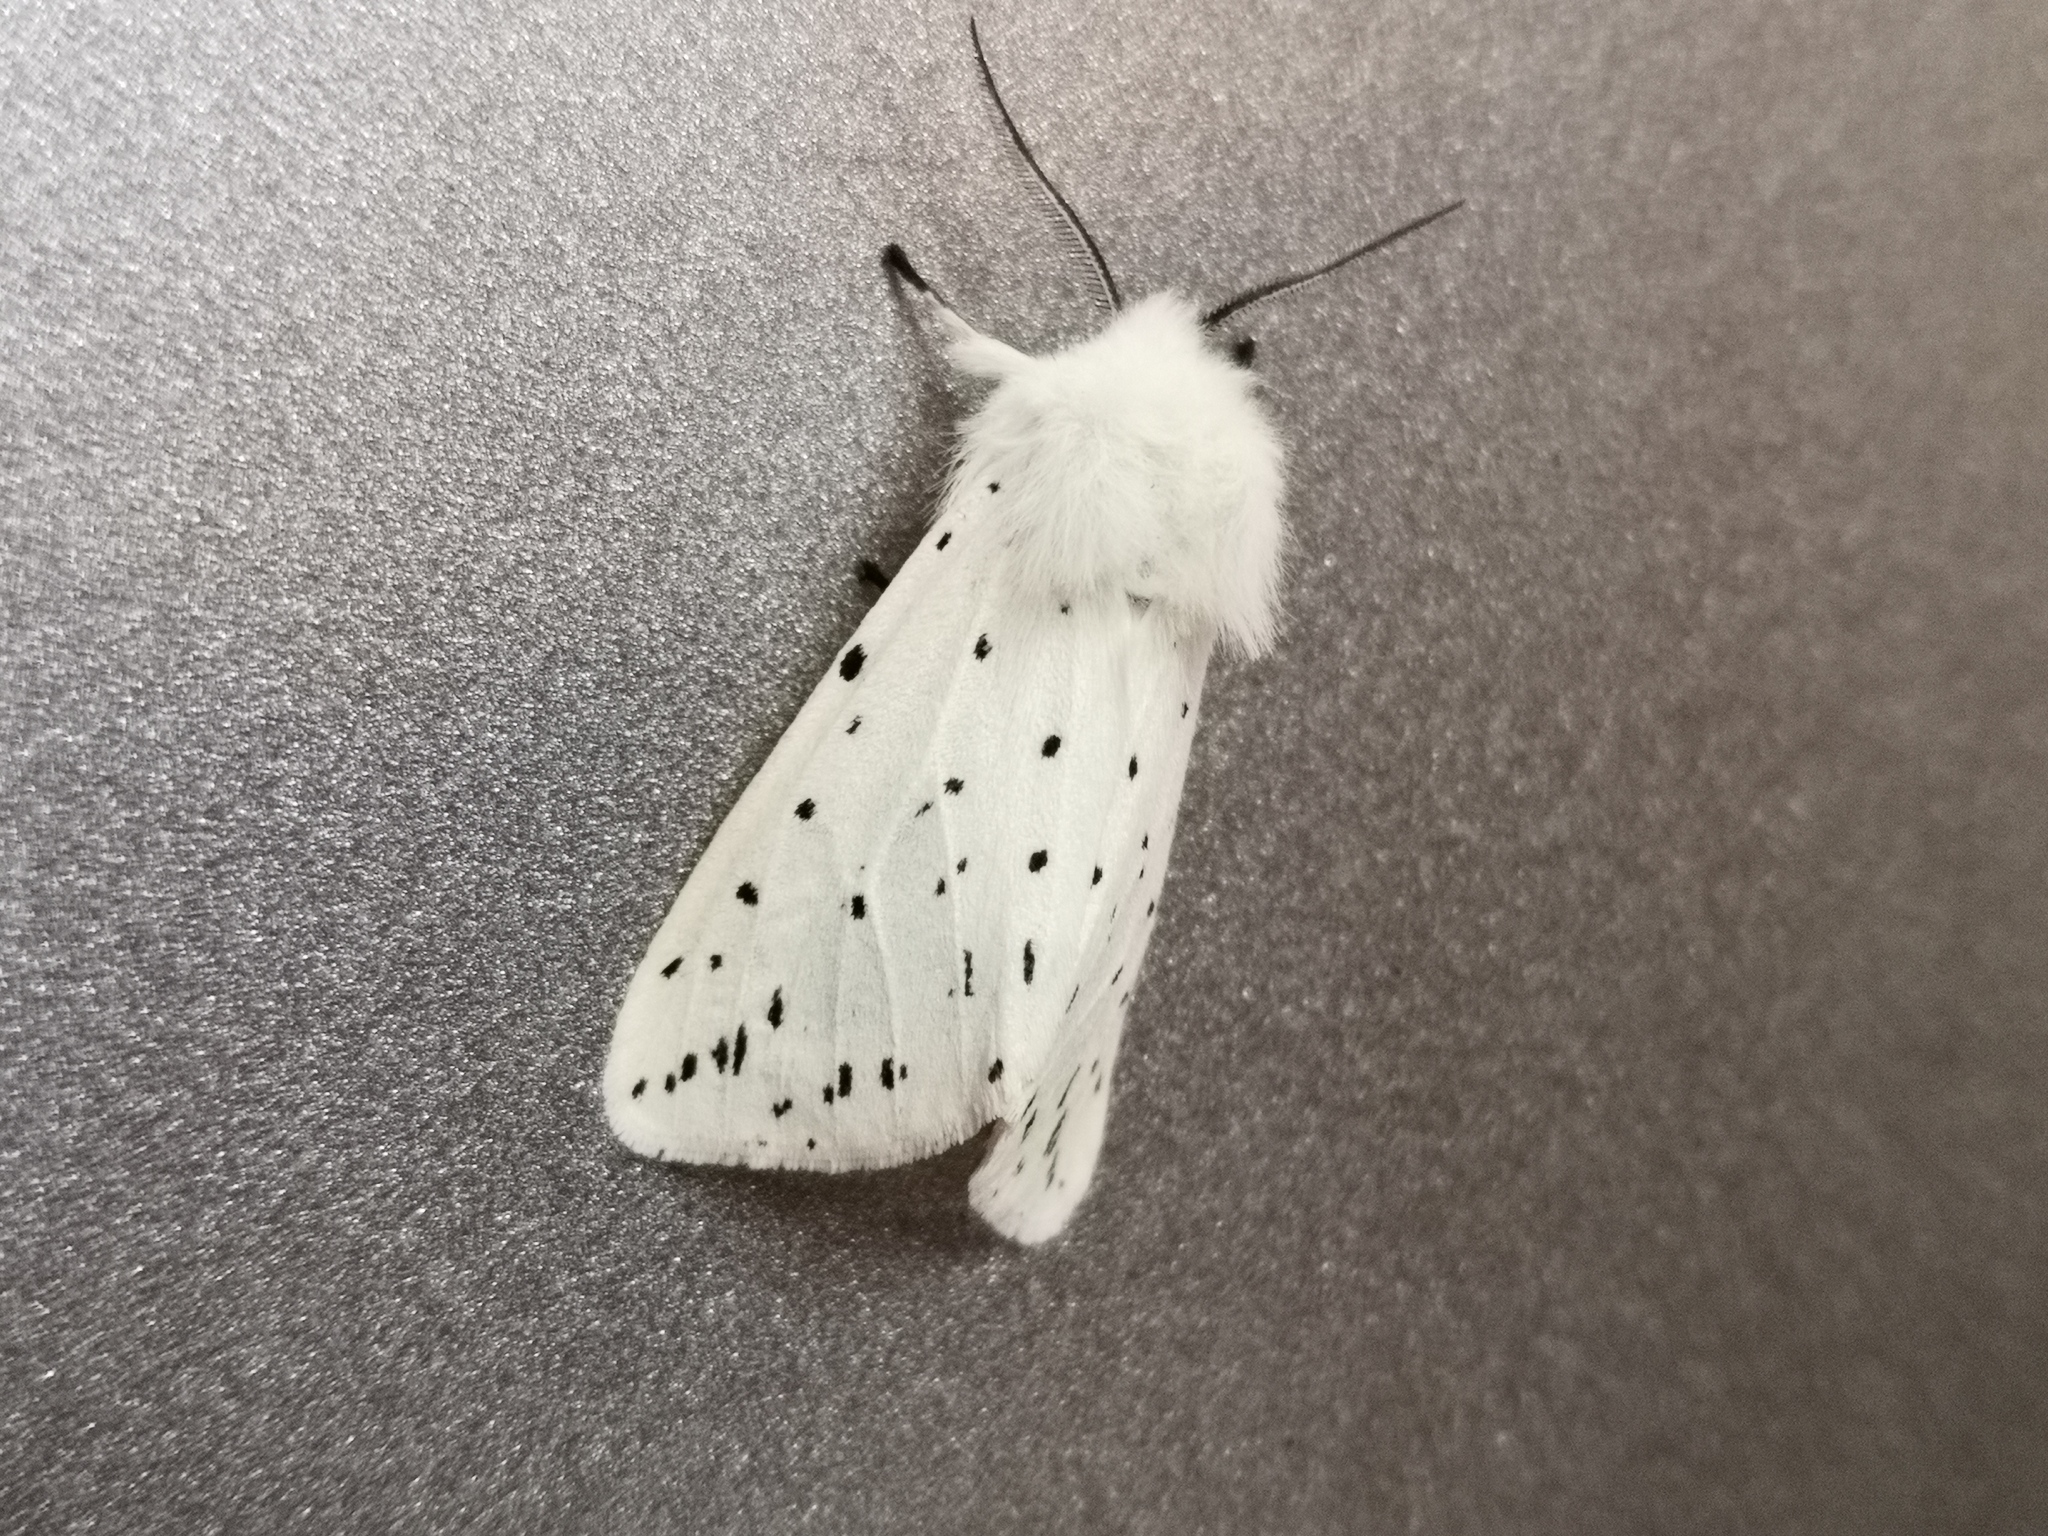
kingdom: Animalia
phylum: Arthropoda
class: Insecta
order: Lepidoptera
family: Erebidae
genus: Spilosoma
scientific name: Spilosoma lubricipeda
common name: White ermine
